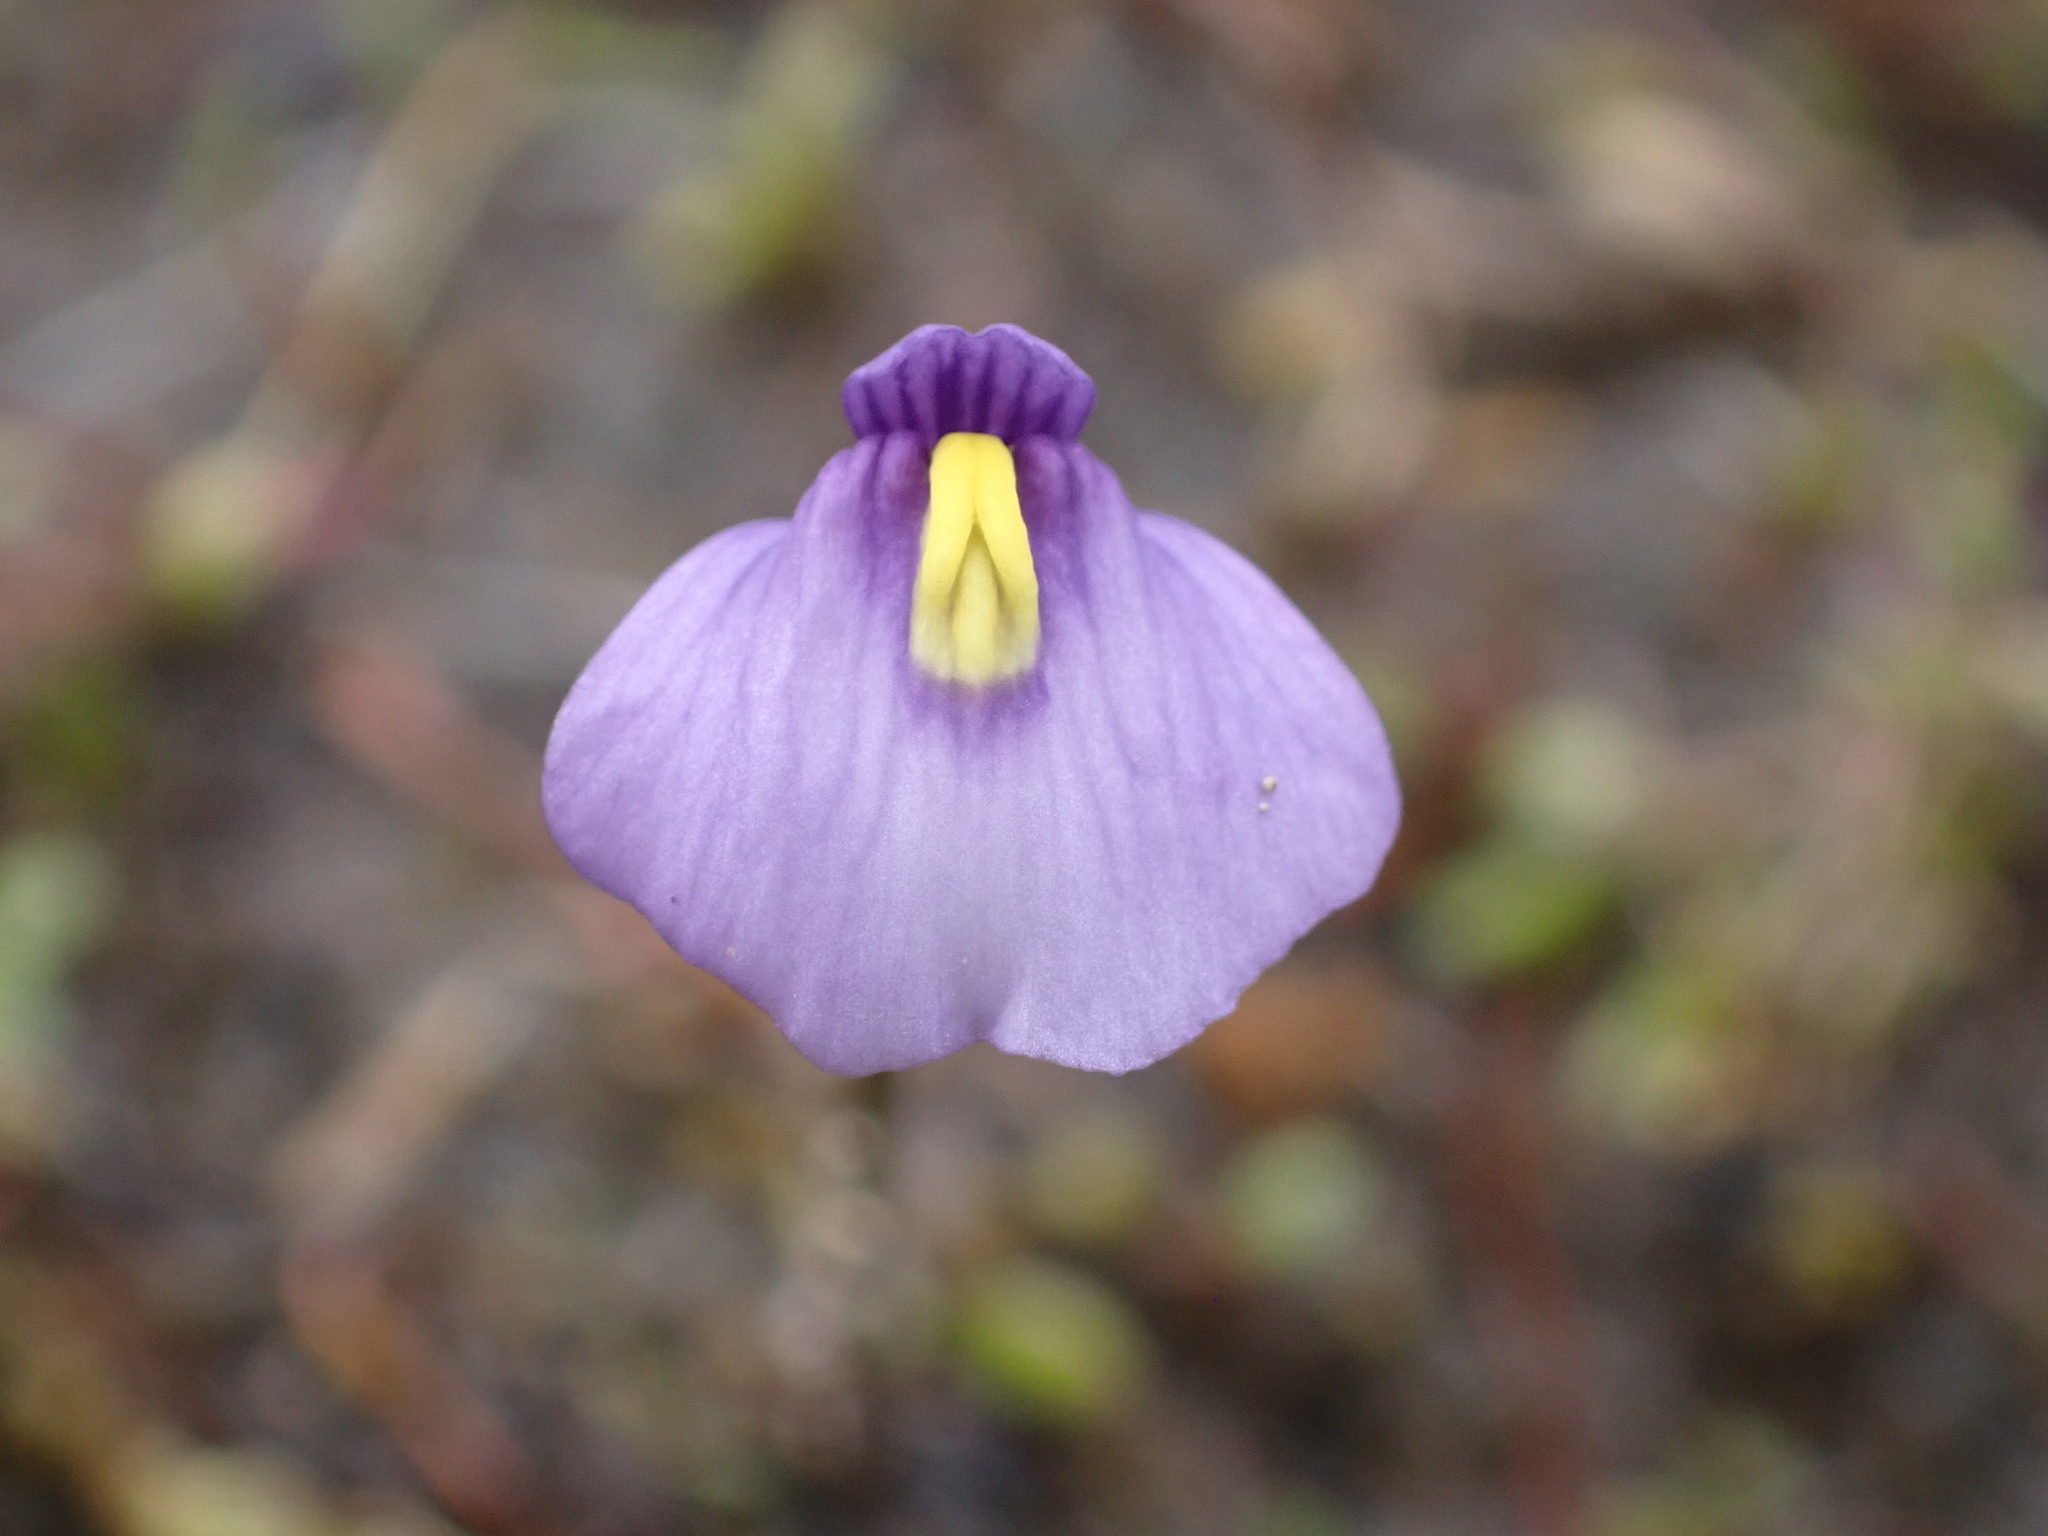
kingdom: Plantae
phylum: Tracheophyta
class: Magnoliopsida
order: Lamiales
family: Lentibulariaceae
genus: Utricularia
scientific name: Utricularia dichotoma
